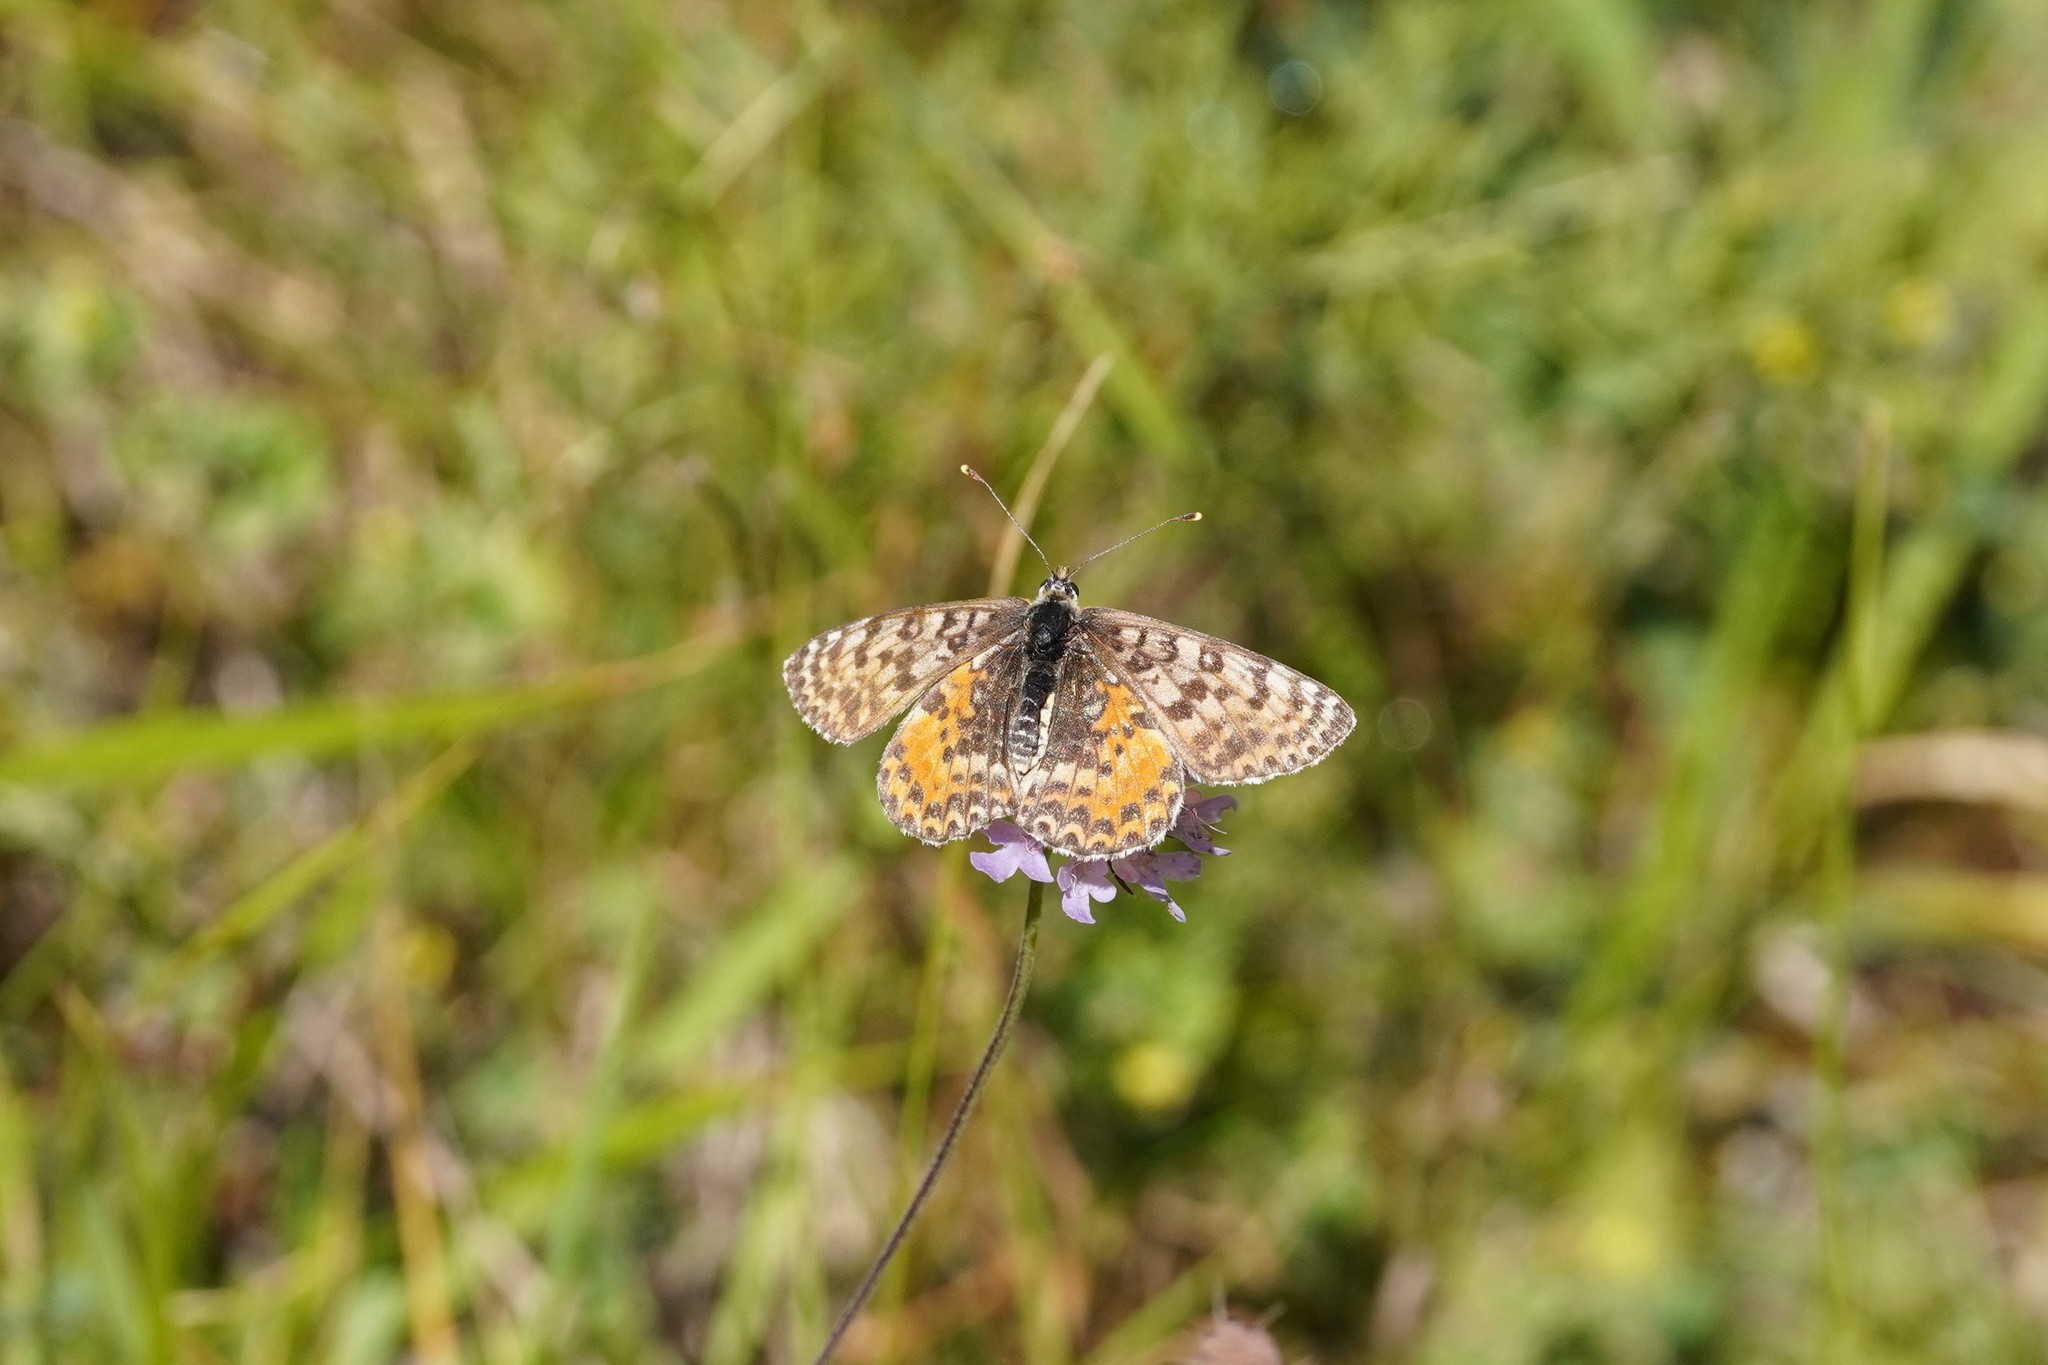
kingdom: Animalia
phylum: Arthropoda
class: Insecta
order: Lepidoptera
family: Nymphalidae
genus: Melitaea
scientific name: Melitaea didyma
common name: Spotted fritillary
